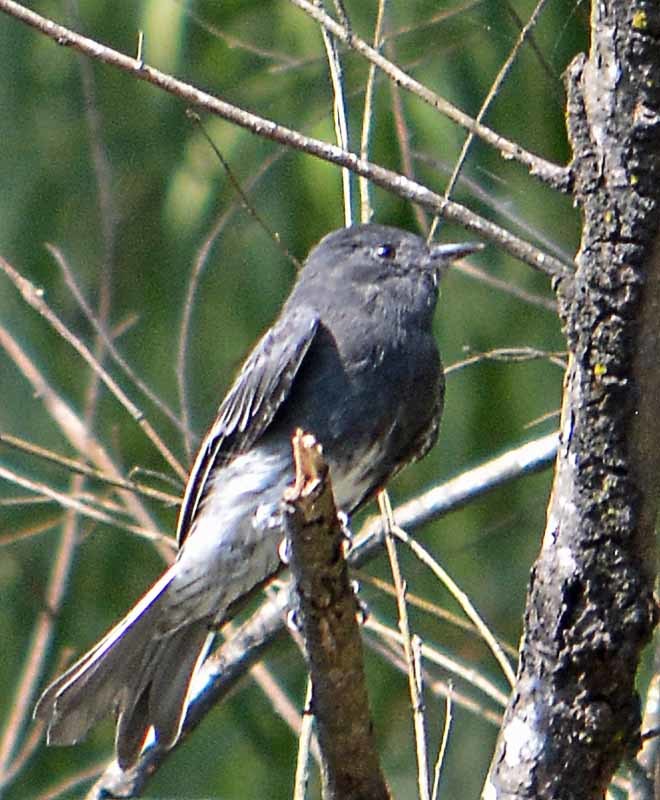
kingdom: Animalia
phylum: Chordata
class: Aves
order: Passeriformes
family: Tyrannidae
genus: Sayornis
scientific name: Sayornis nigricans
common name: Black phoebe
